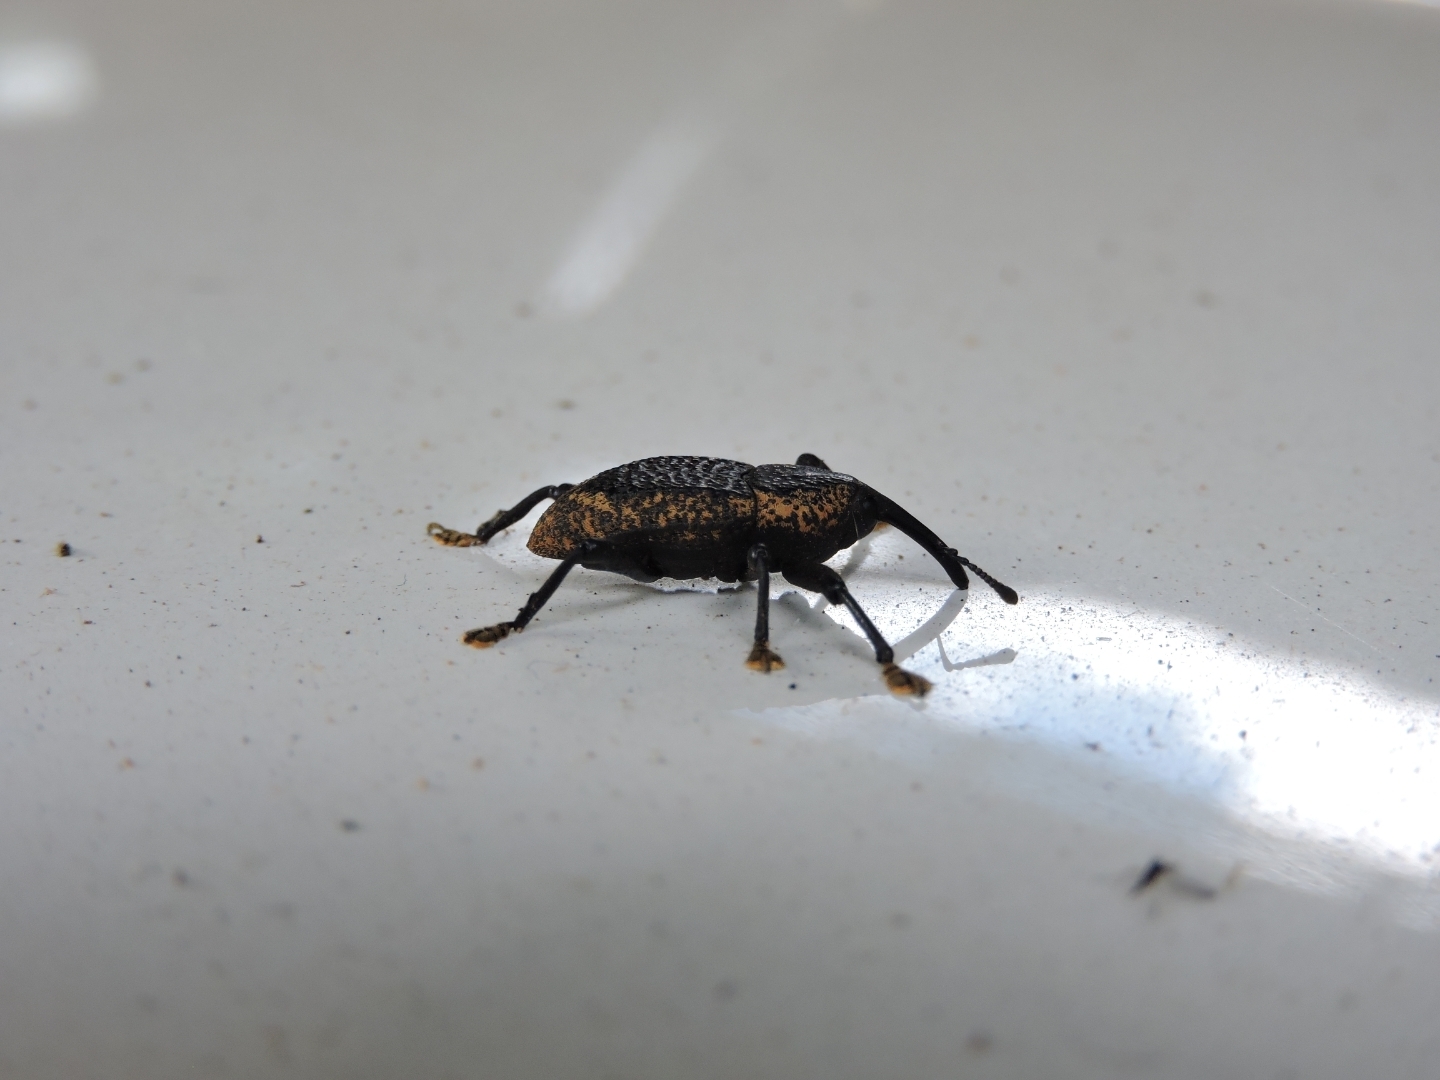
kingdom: Animalia
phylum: Arthropoda
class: Insecta
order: Coleoptera
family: Curculionidae
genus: Homalinotus
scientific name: Homalinotus deplanatus
